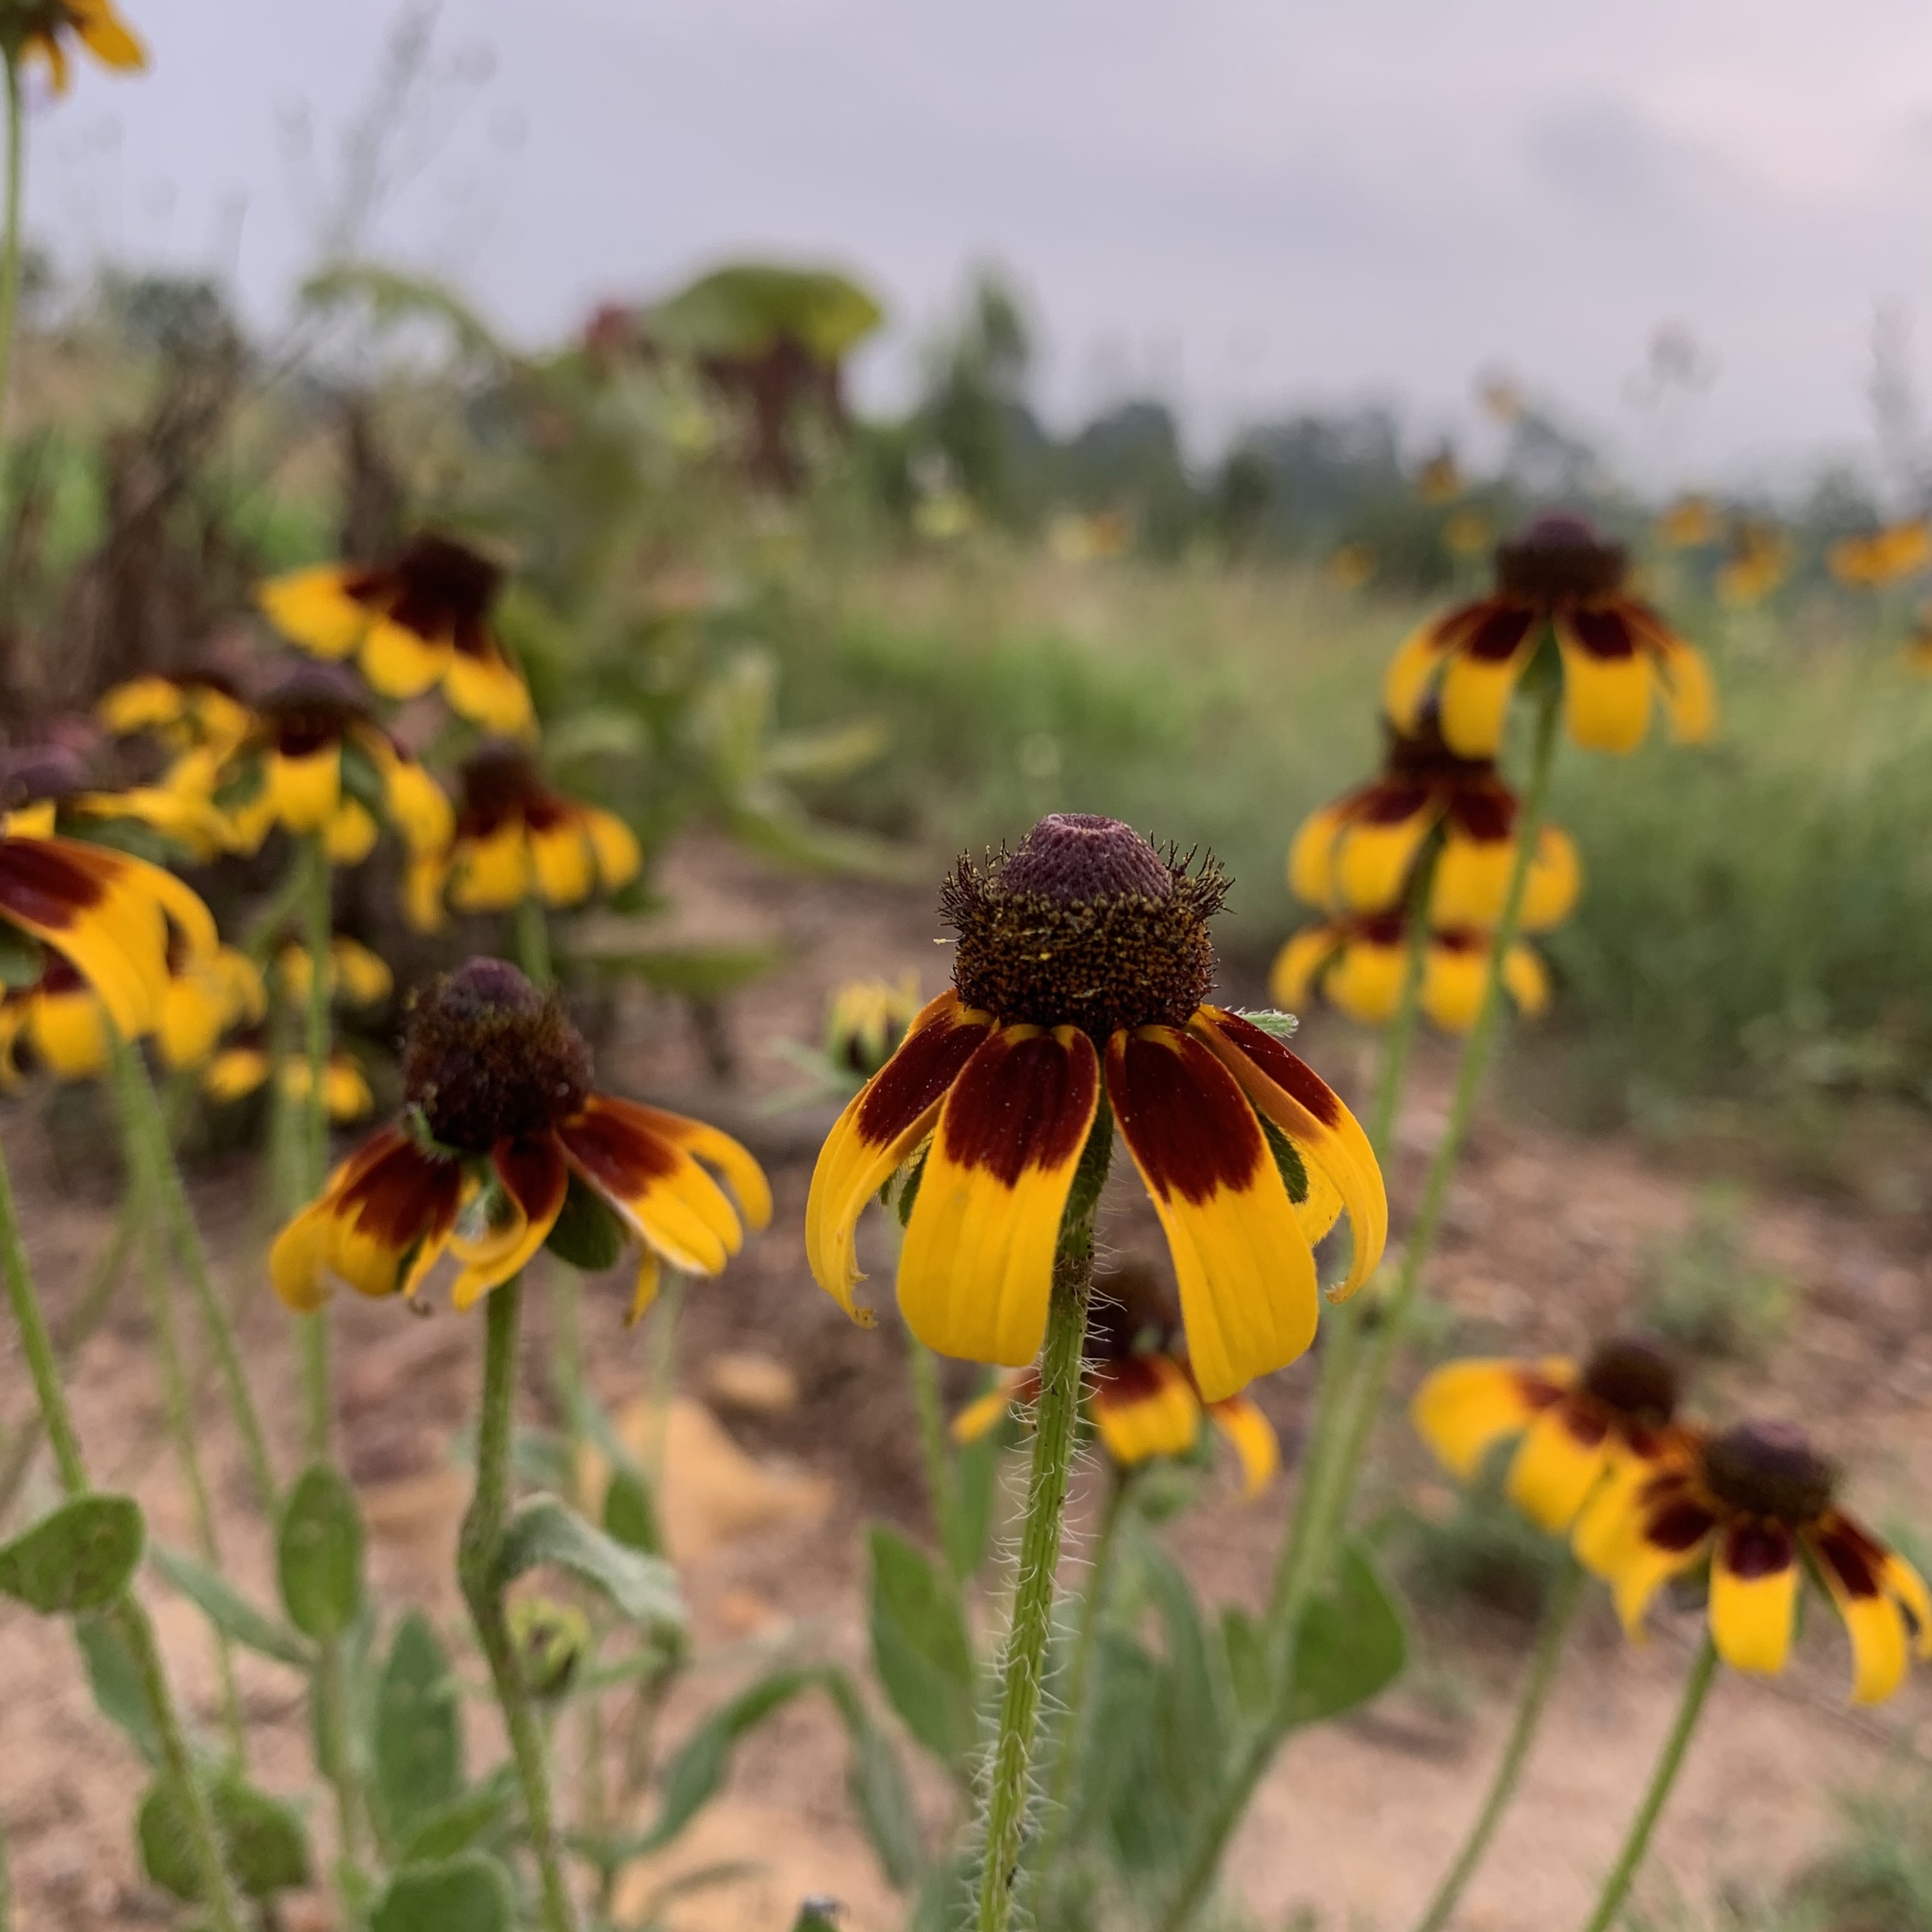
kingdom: Plantae
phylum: Tracheophyta
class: Magnoliopsida
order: Asterales
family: Asteraceae
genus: Rudbeckia
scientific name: Rudbeckia hirta
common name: Black-eyed-susan
